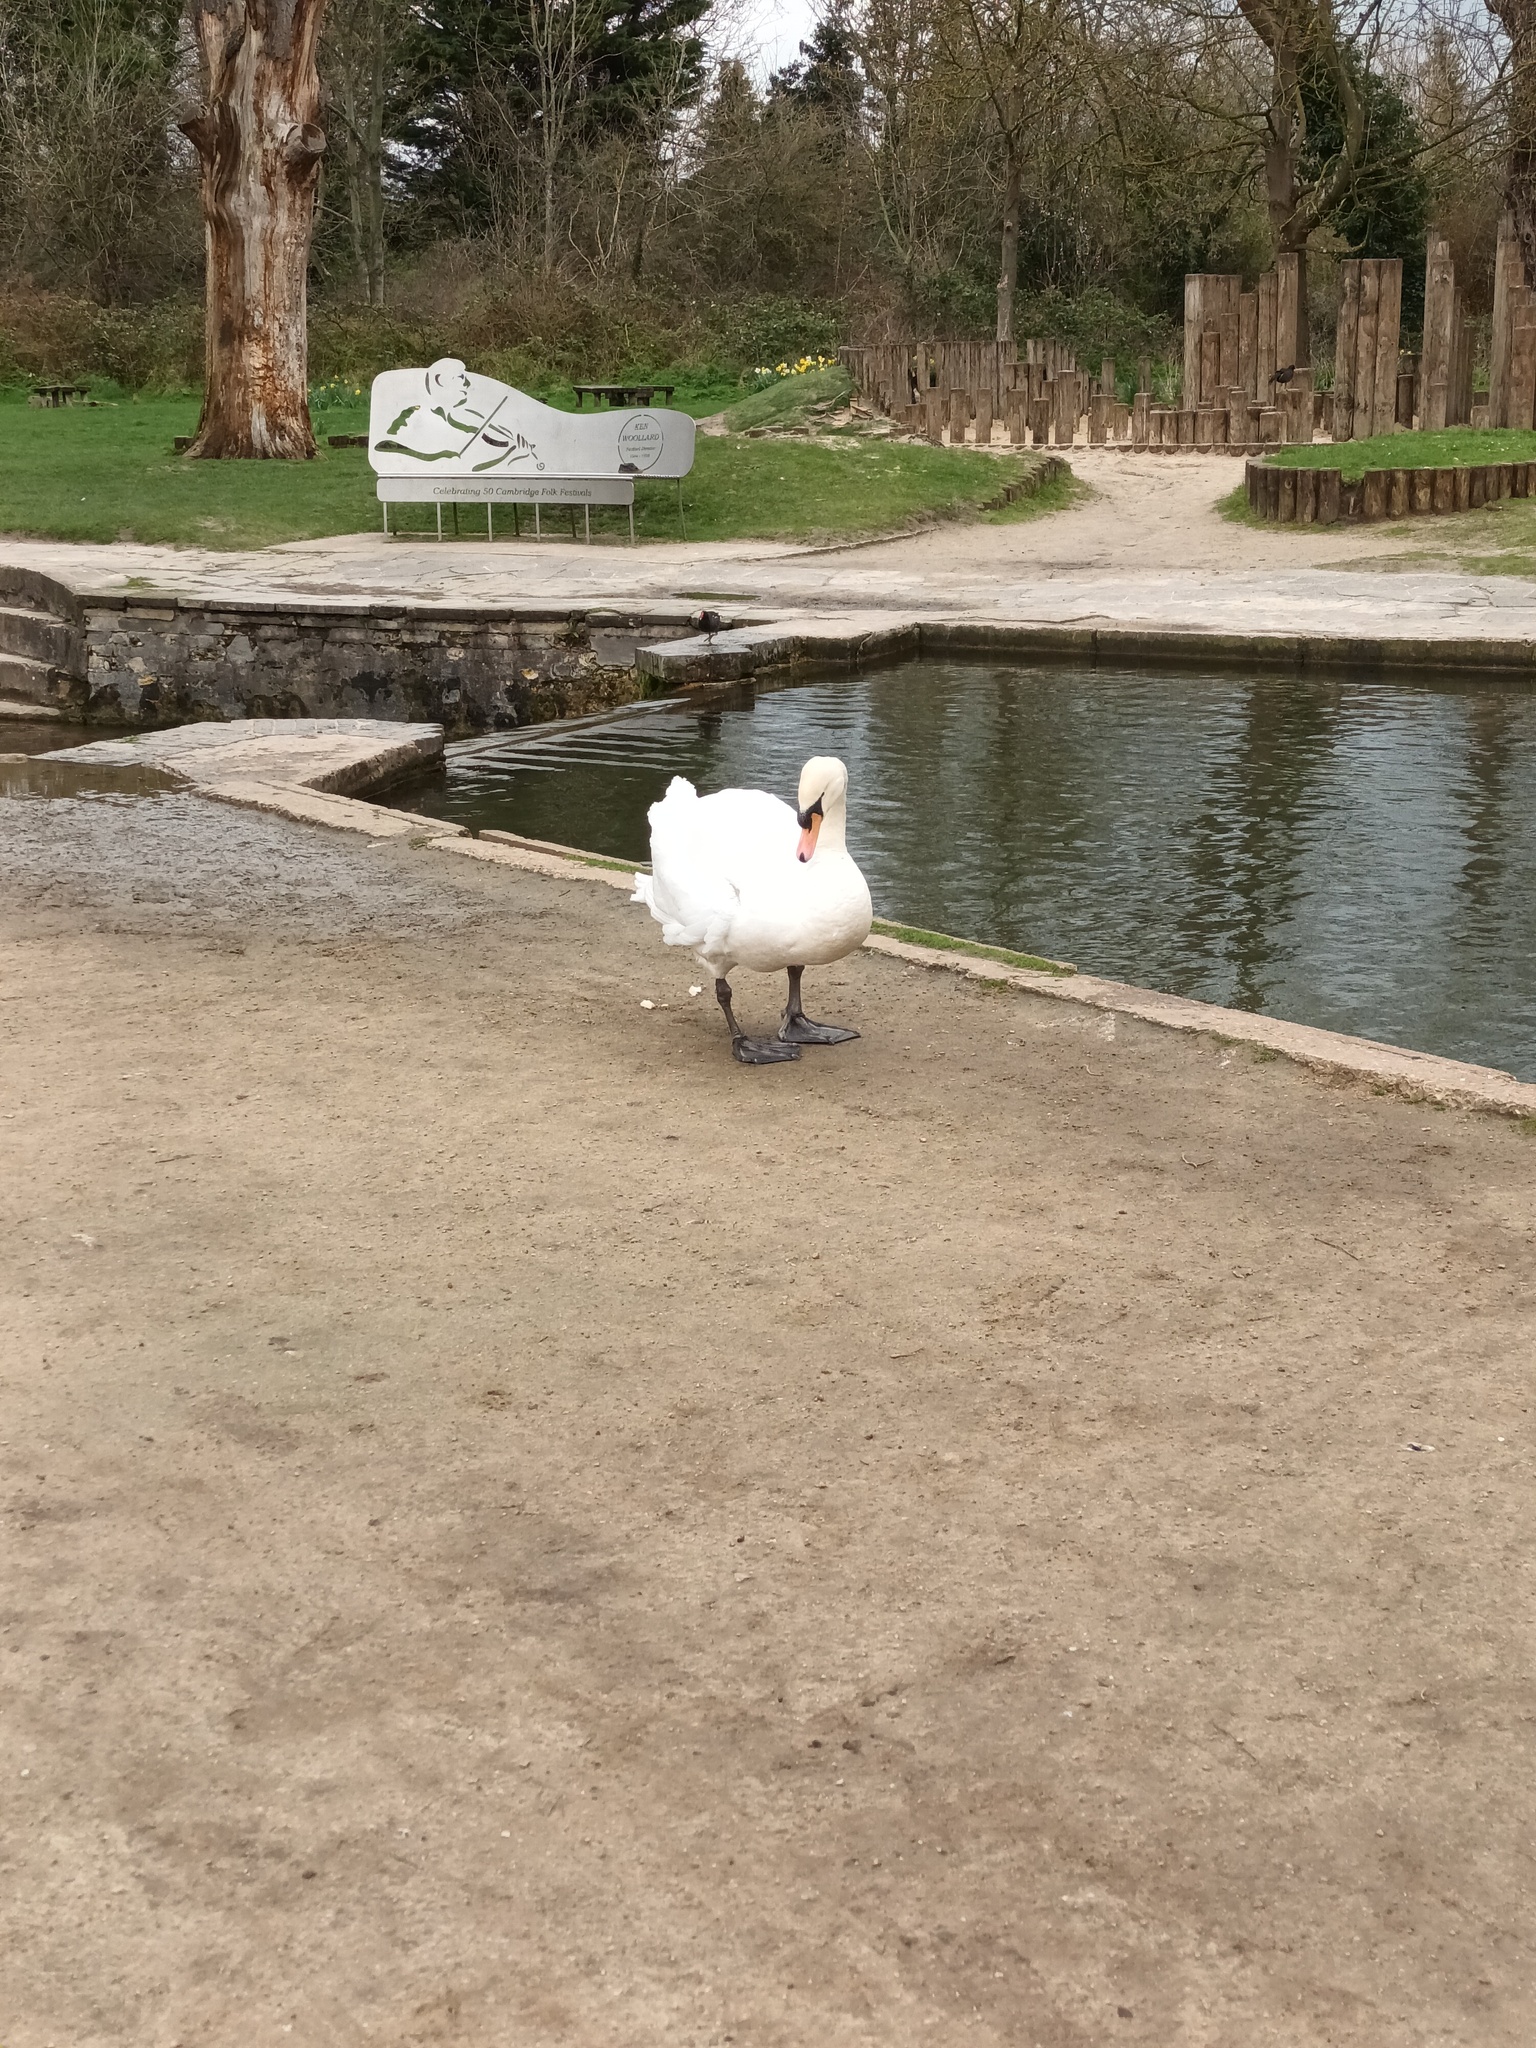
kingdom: Animalia
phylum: Chordata
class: Aves
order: Anseriformes
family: Anatidae
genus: Cygnus
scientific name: Cygnus olor
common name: Mute swan
